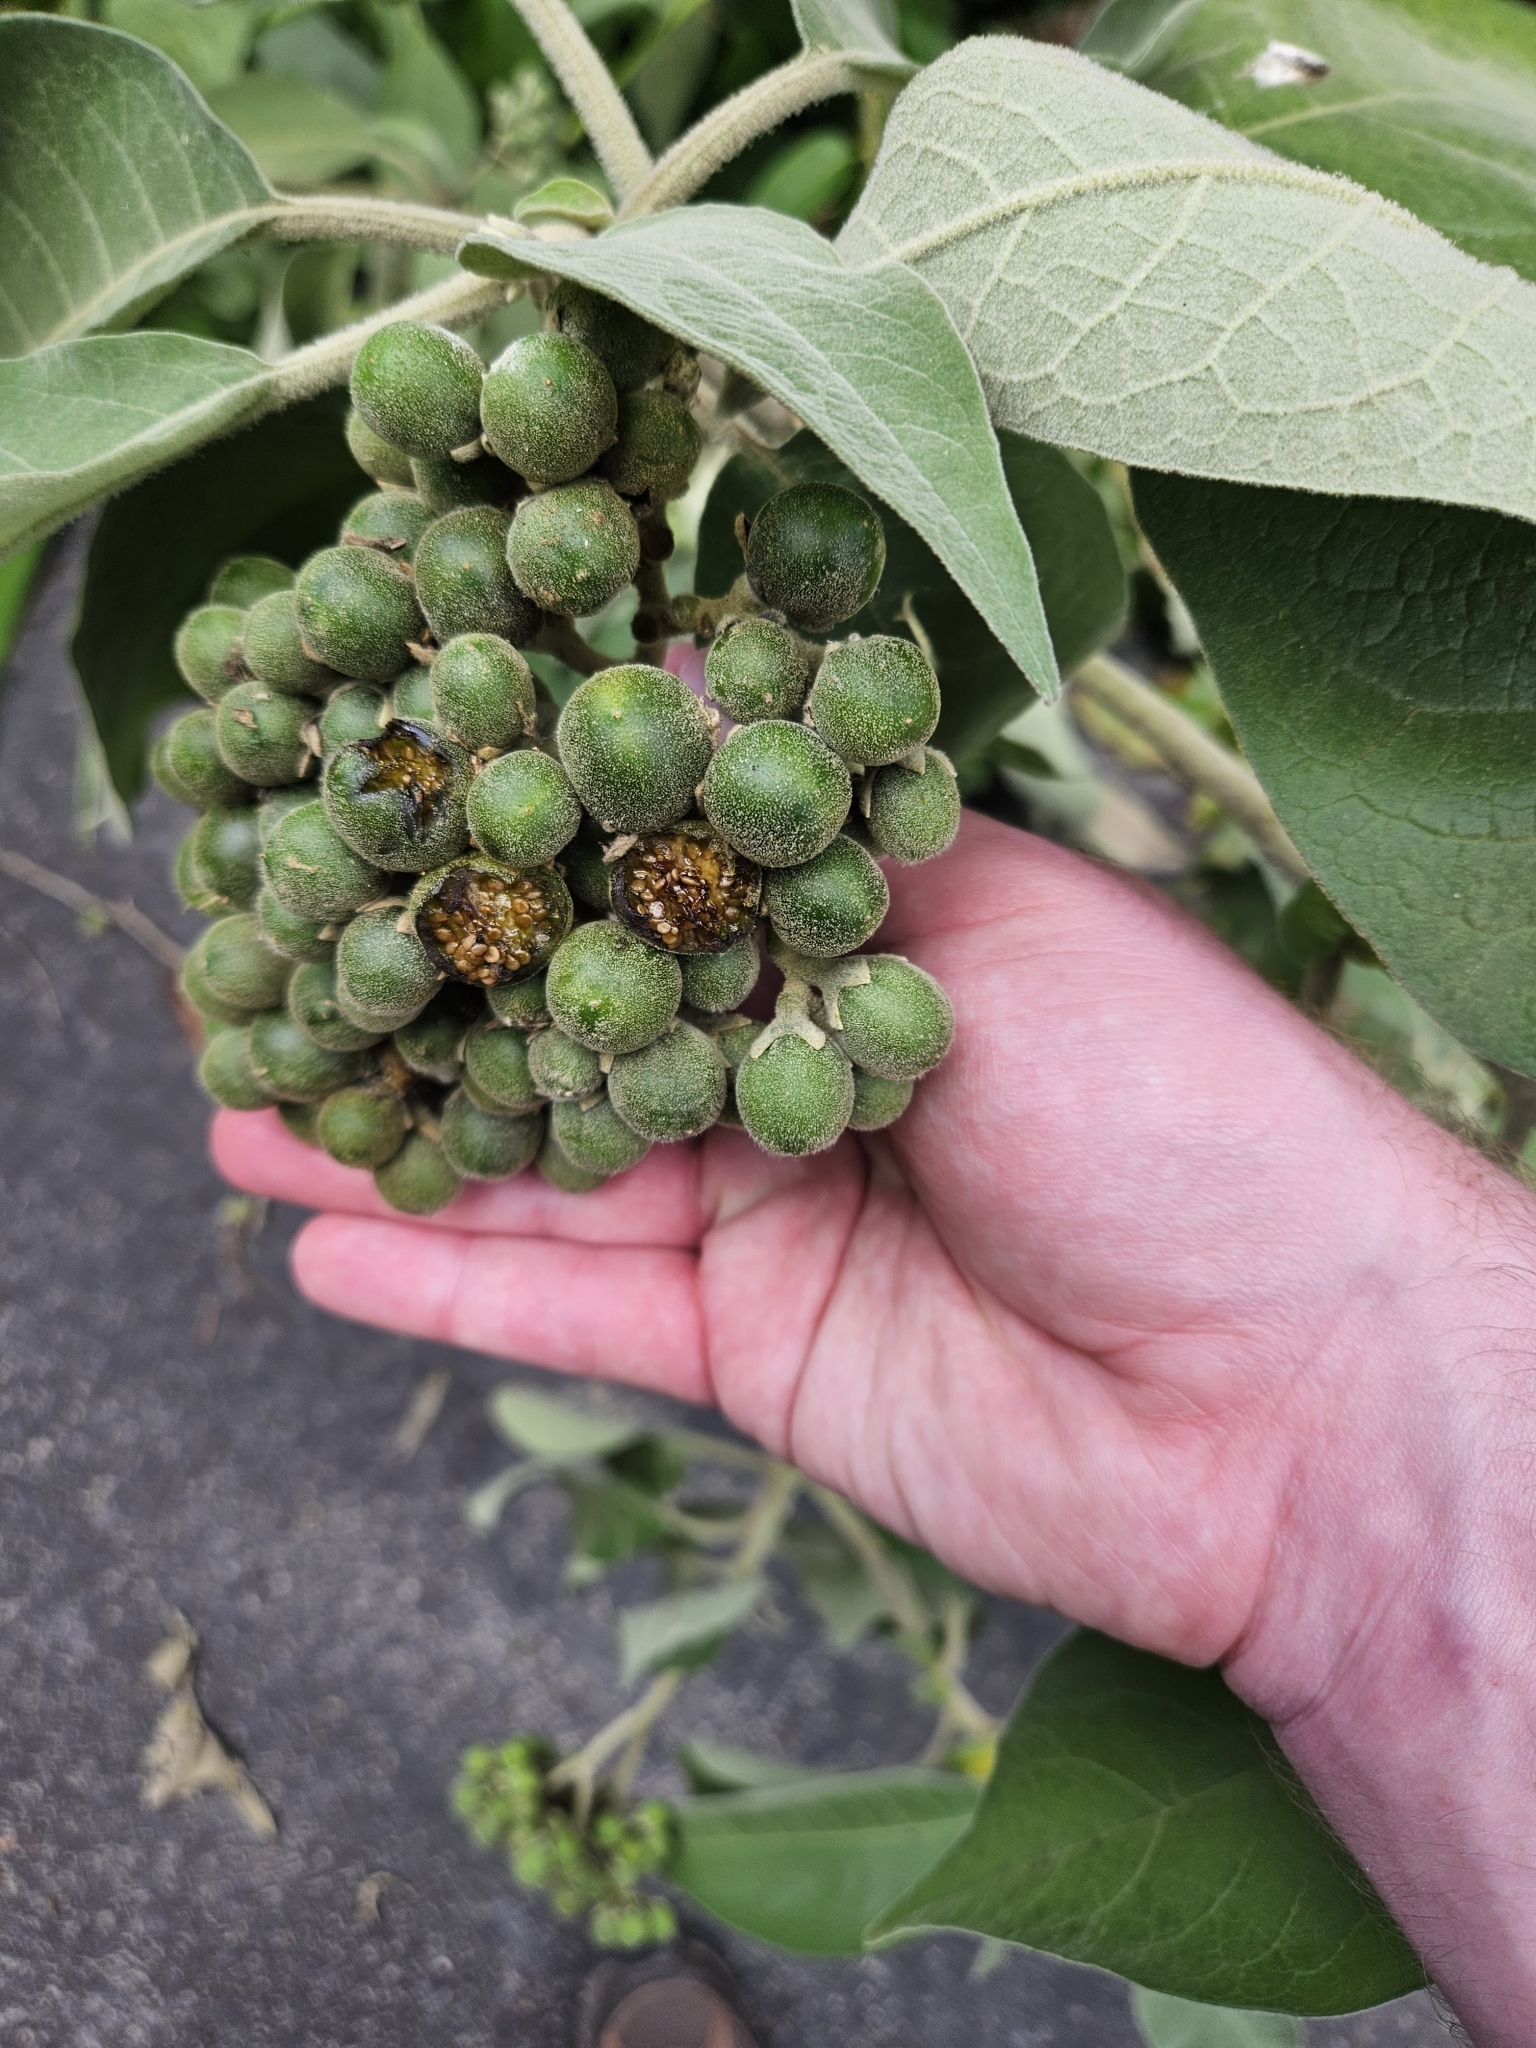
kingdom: Plantae
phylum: Tracheophyta
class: Magnoliopsida
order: Solanales
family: Solanaceae
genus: Solanum
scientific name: Solanum mauritianum
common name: Earleaf nightshade
